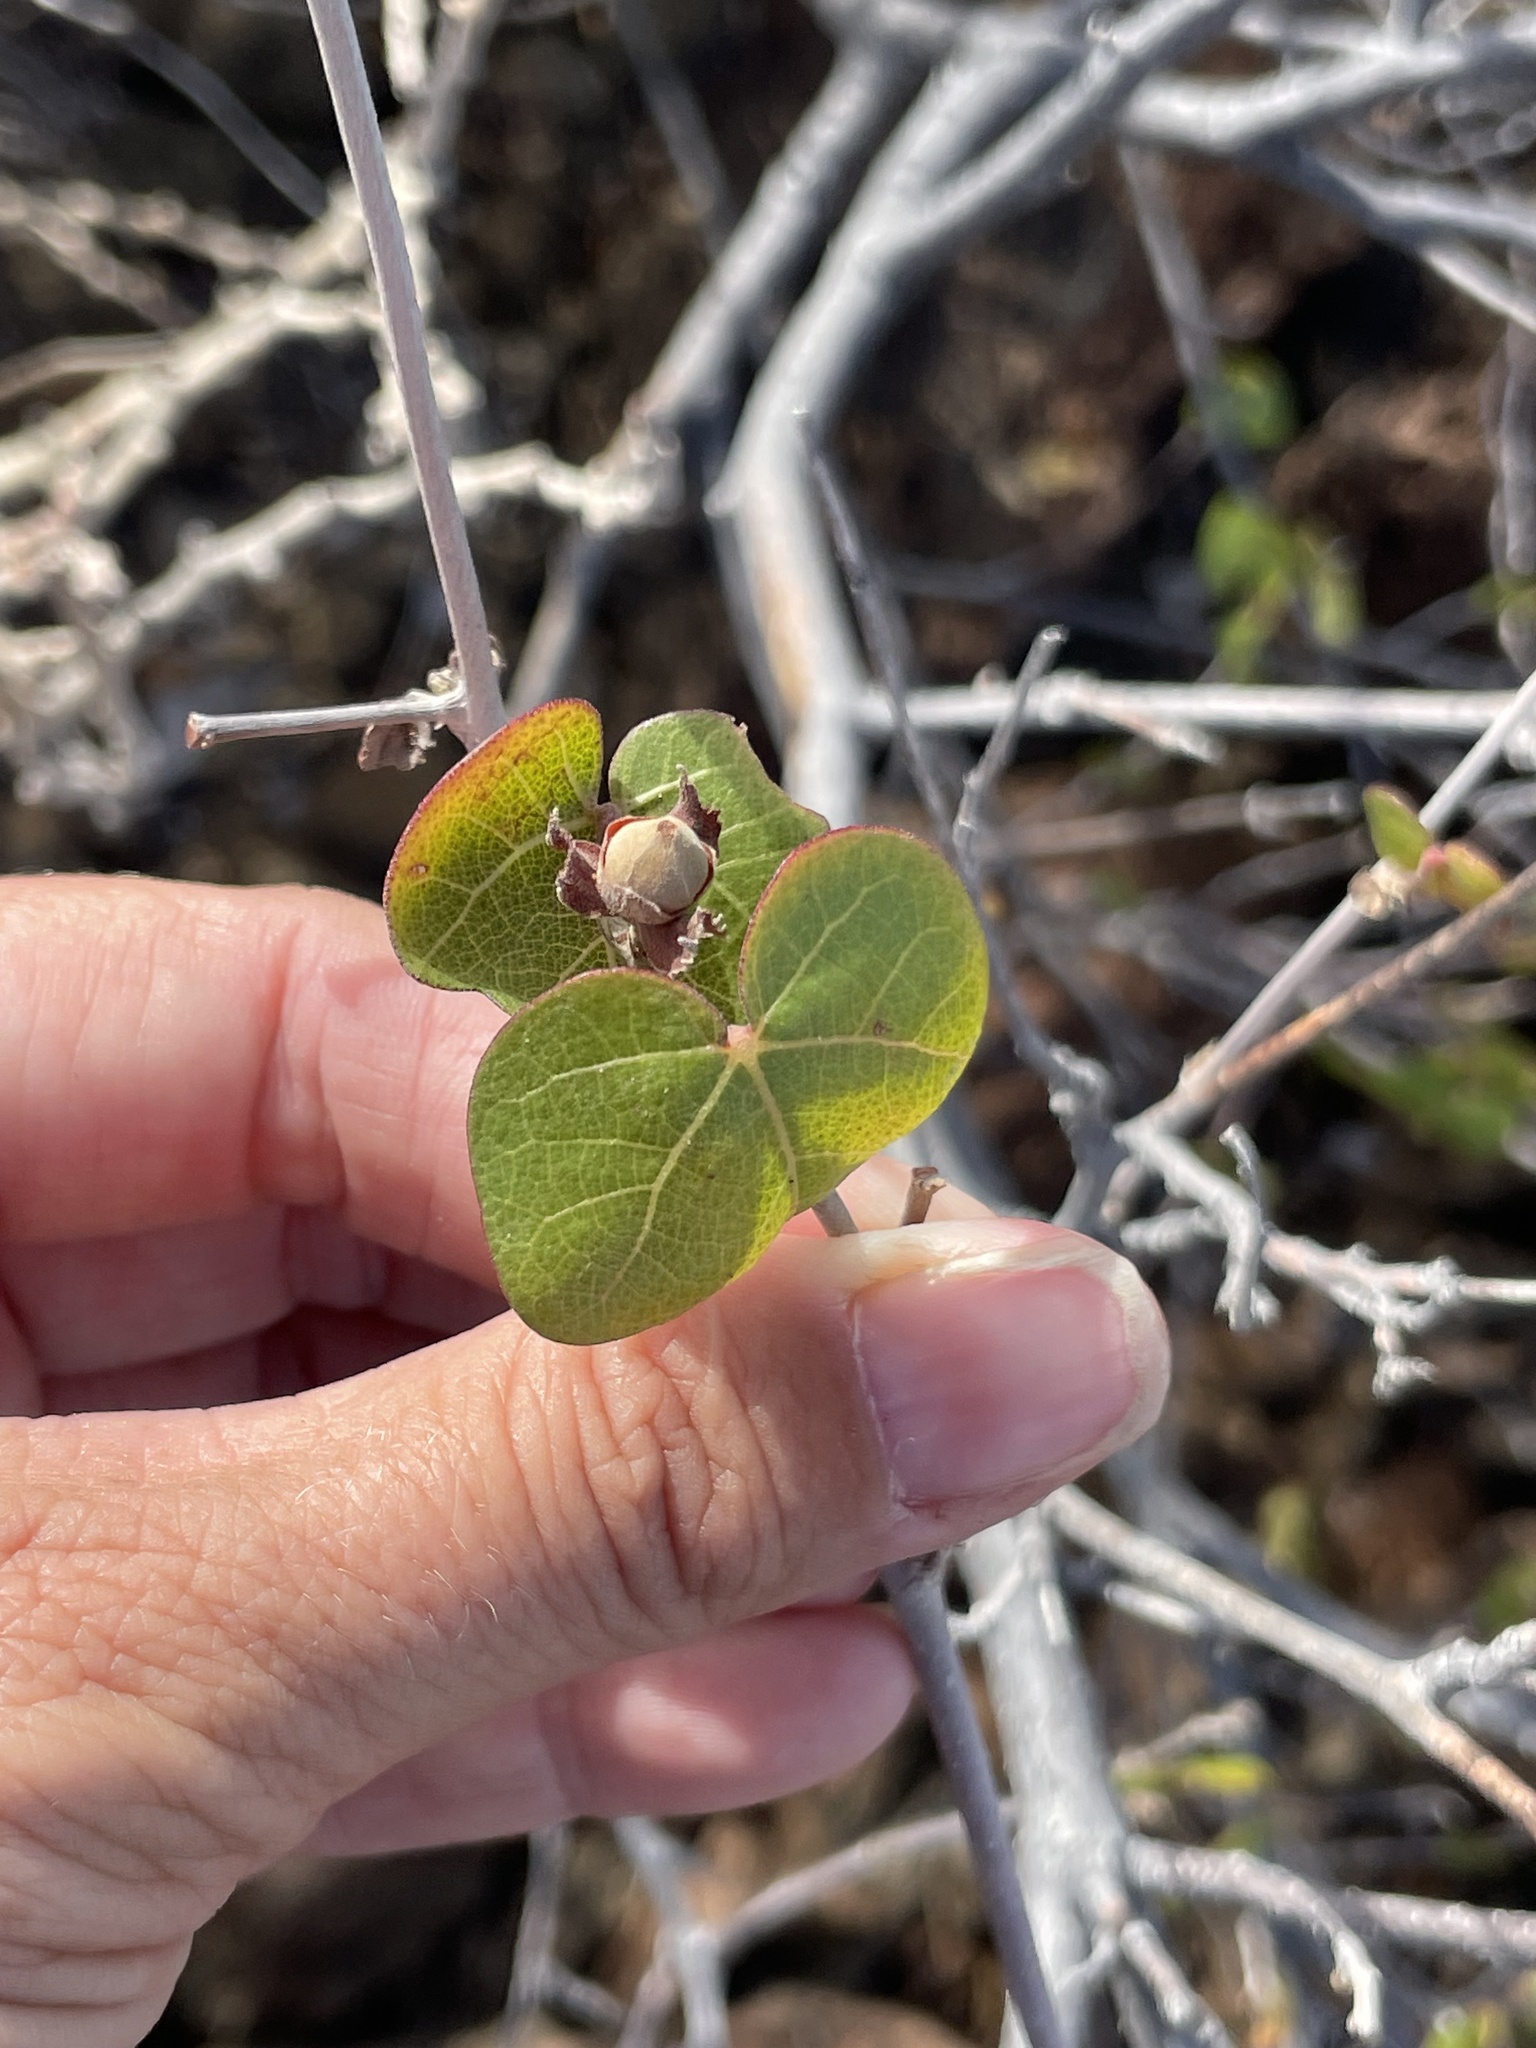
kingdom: Plantae
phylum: Tracheophyta
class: Magnoliopsida
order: Malvales
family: Malvaceae
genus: Gossypium
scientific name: Gossypium klotzschianum
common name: Galapagos cotton
